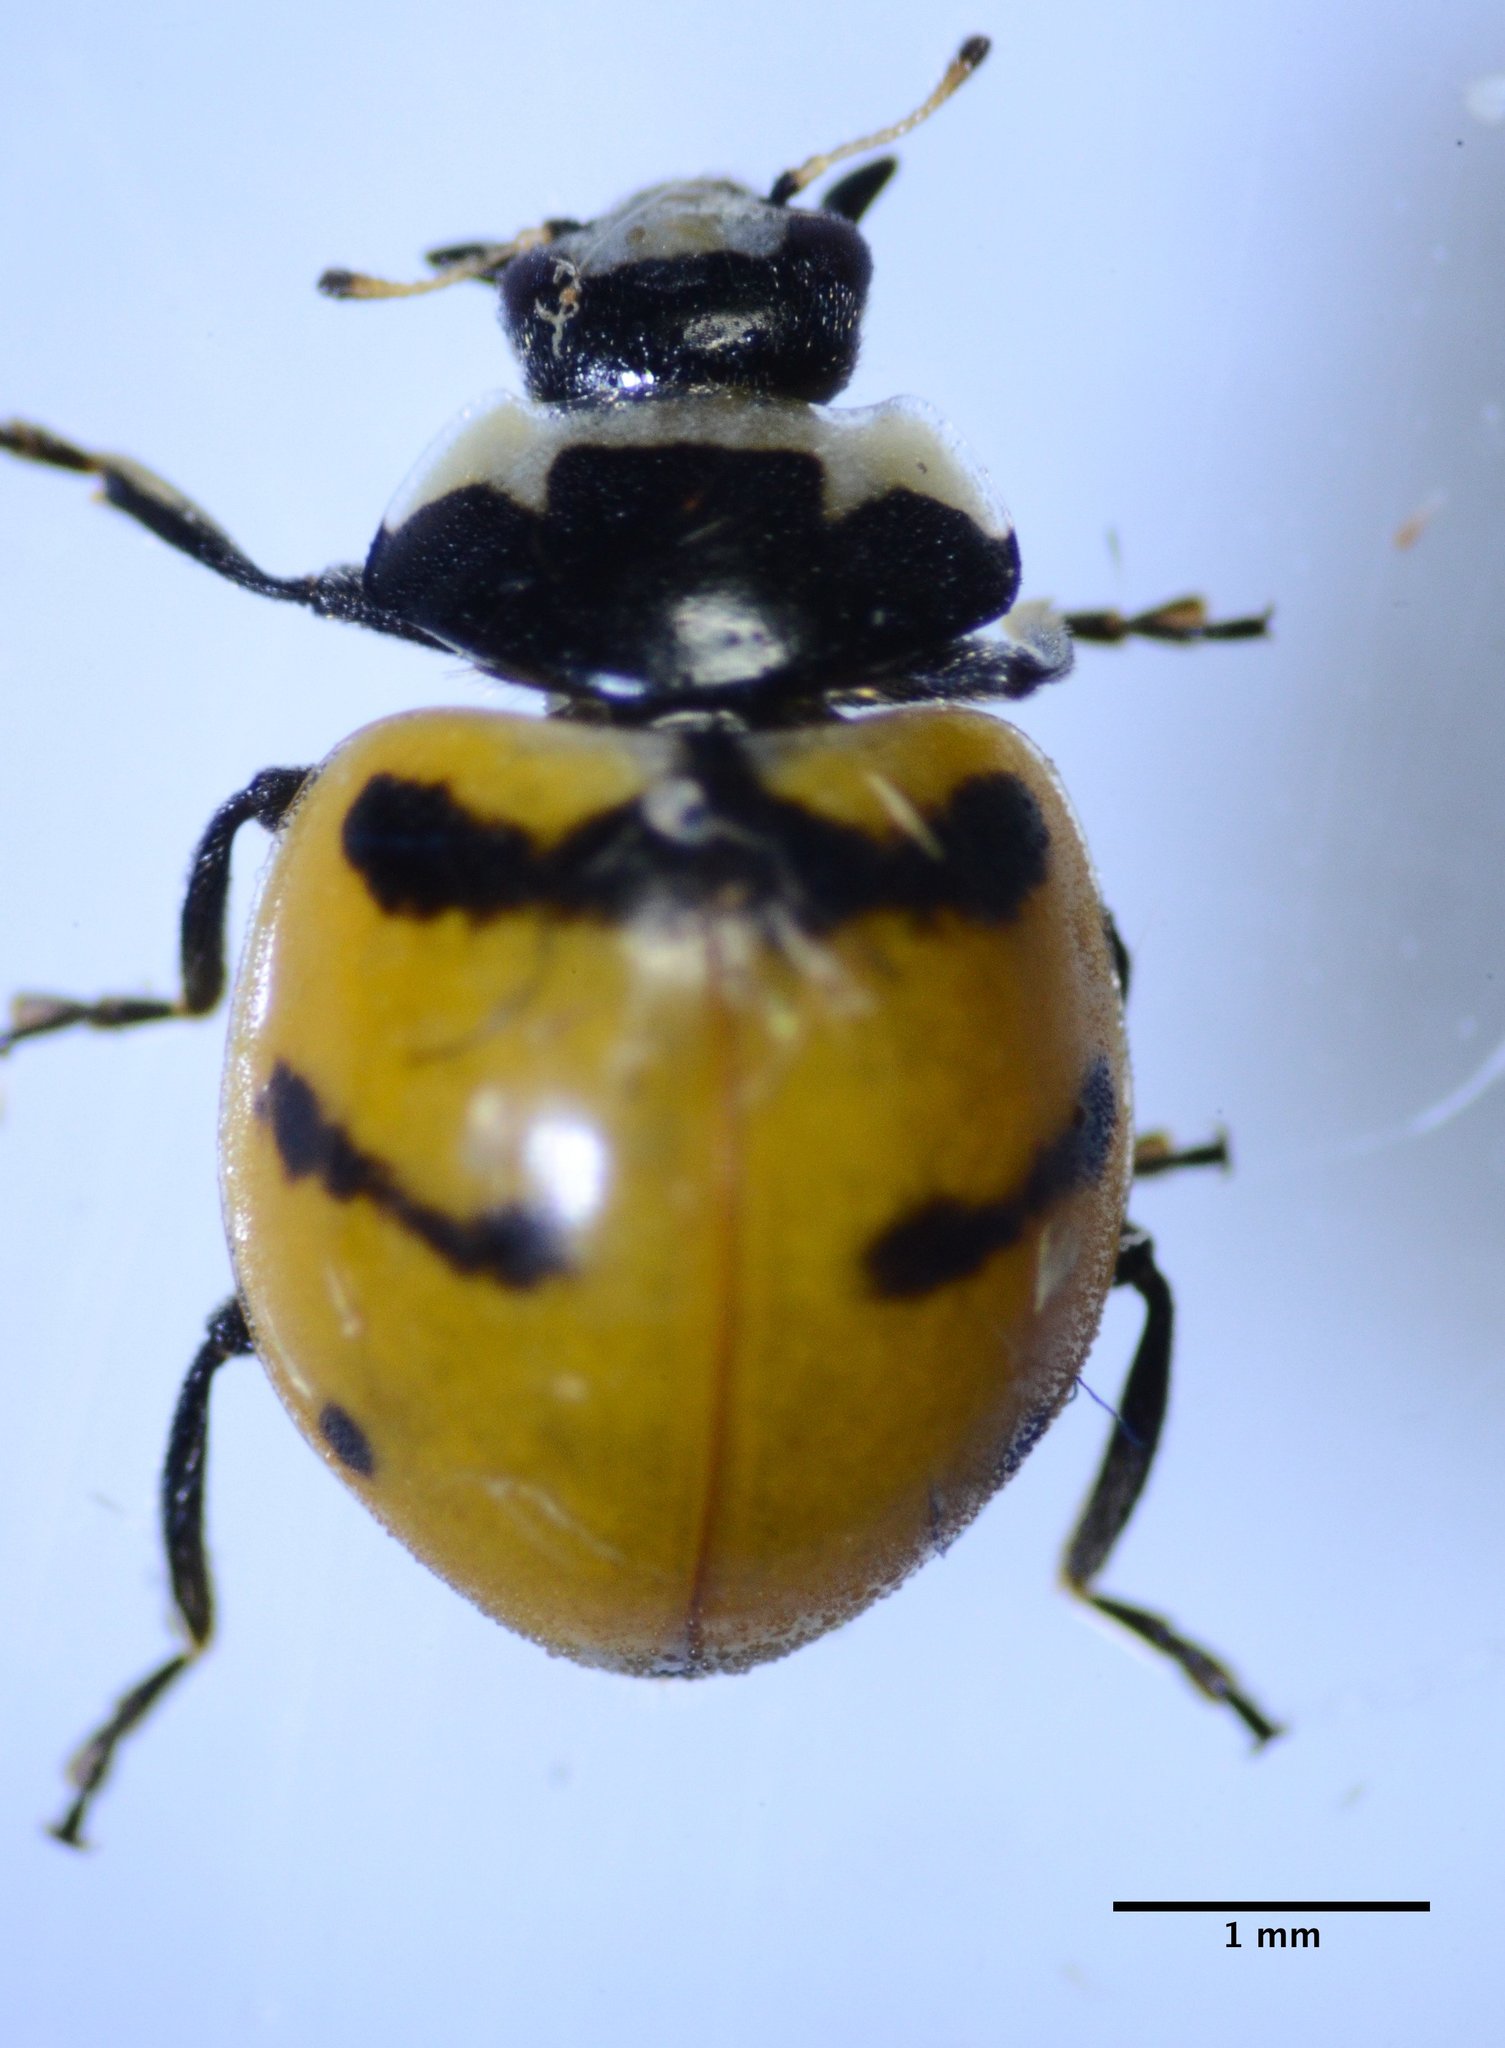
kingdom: Animalia
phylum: Arthropoda
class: Insecta
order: Coleoptera
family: Coccinellidae
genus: Coccinella
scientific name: Coccinella trifasciata
